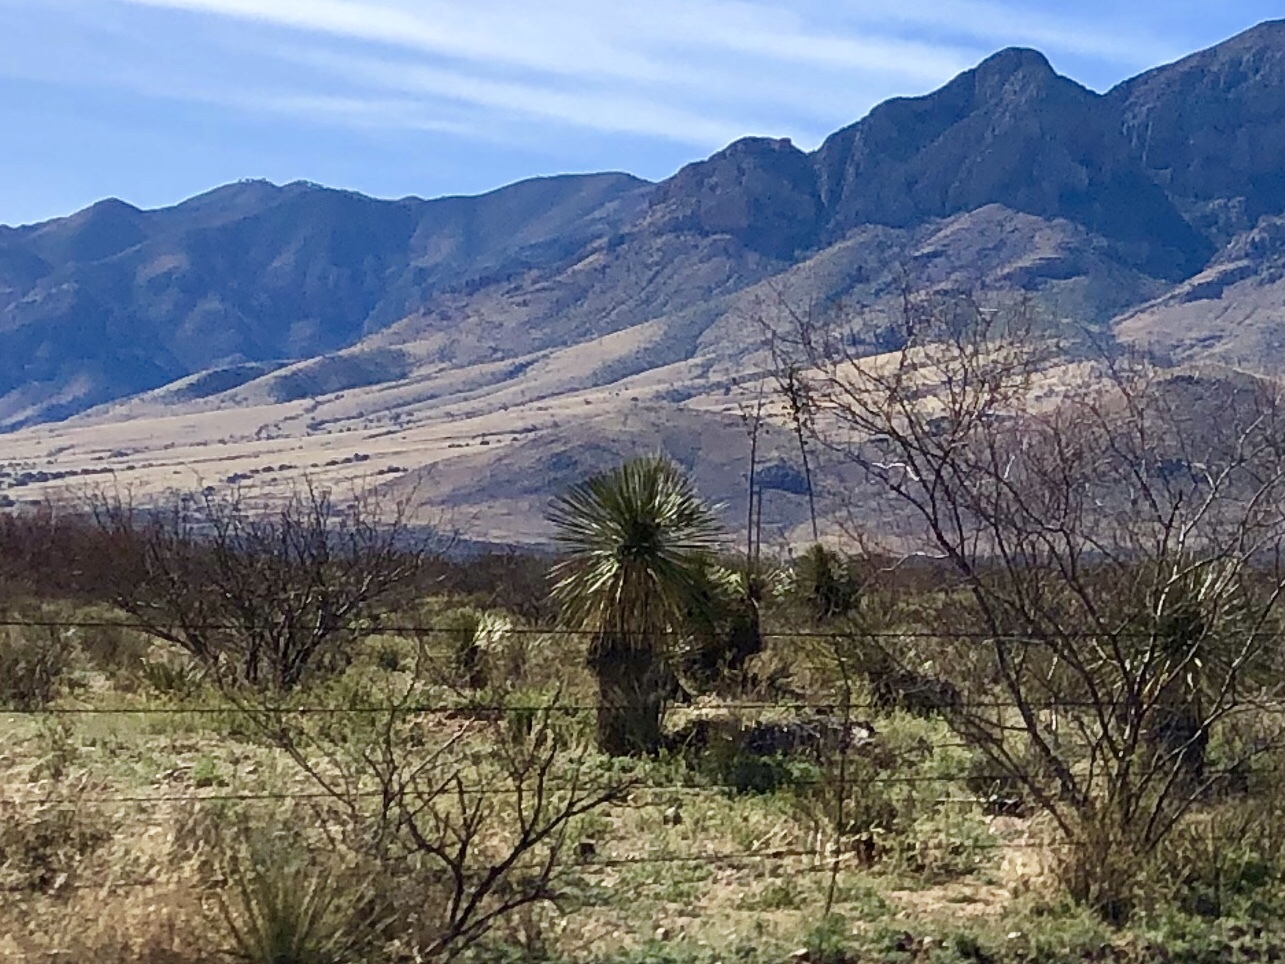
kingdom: Plantae
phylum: Tracheophyta
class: Liliopsida
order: Asparagales
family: Asparagaceae
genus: Yucca
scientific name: Yucca elata
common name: Palmella
